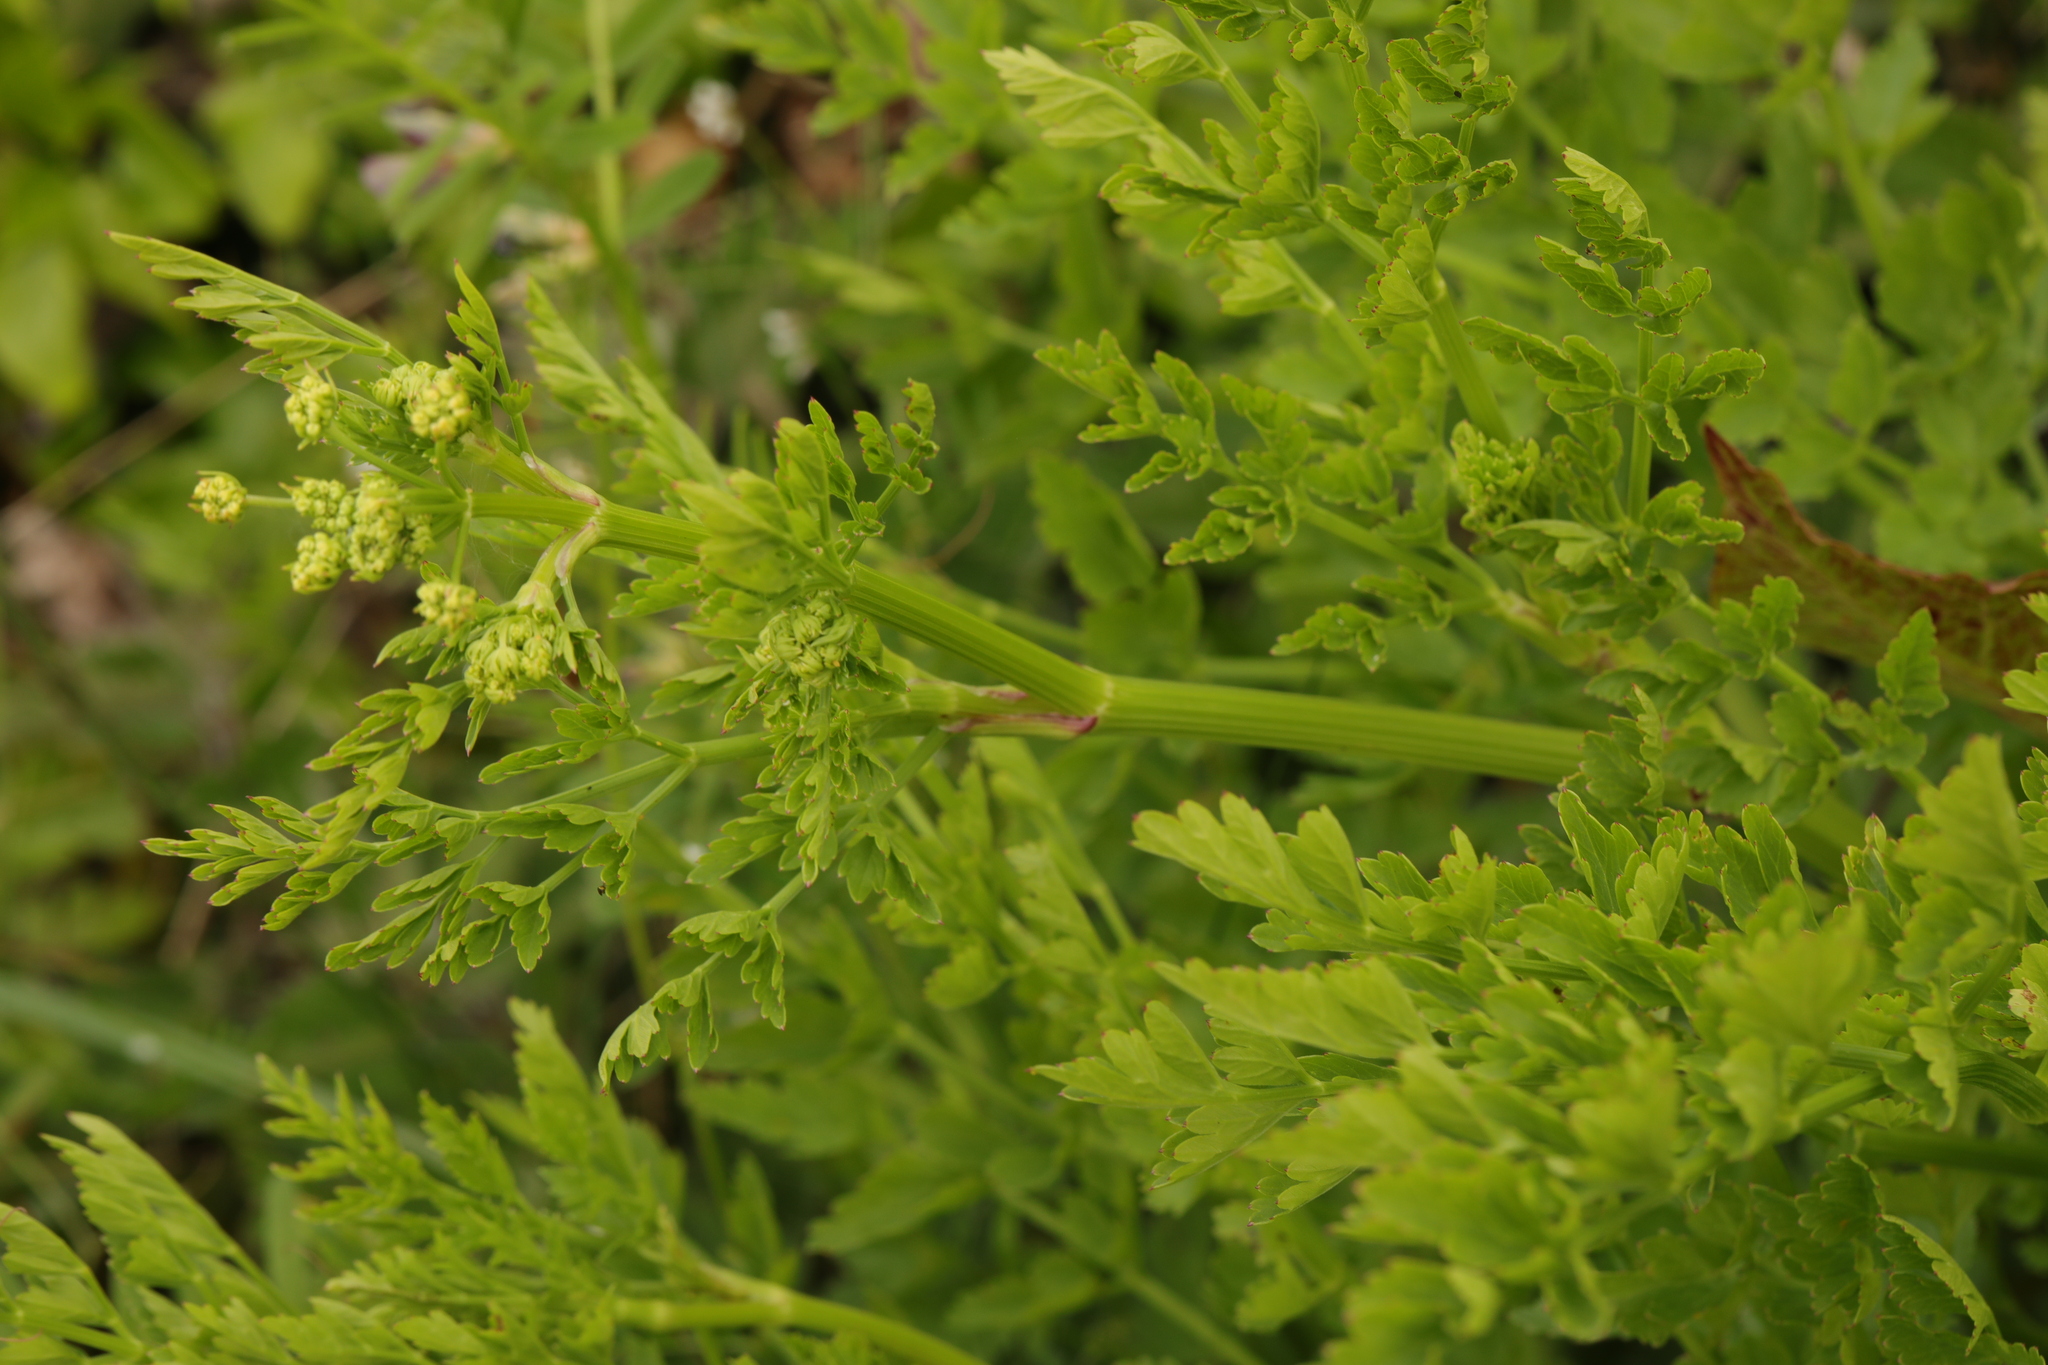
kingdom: Plantae
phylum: Tracheophyta
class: Magnoliopsida
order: Apiales
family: Apiaceae
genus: Oenanthe
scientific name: Oenanthe crocata
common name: Hemlock water-dropwort
